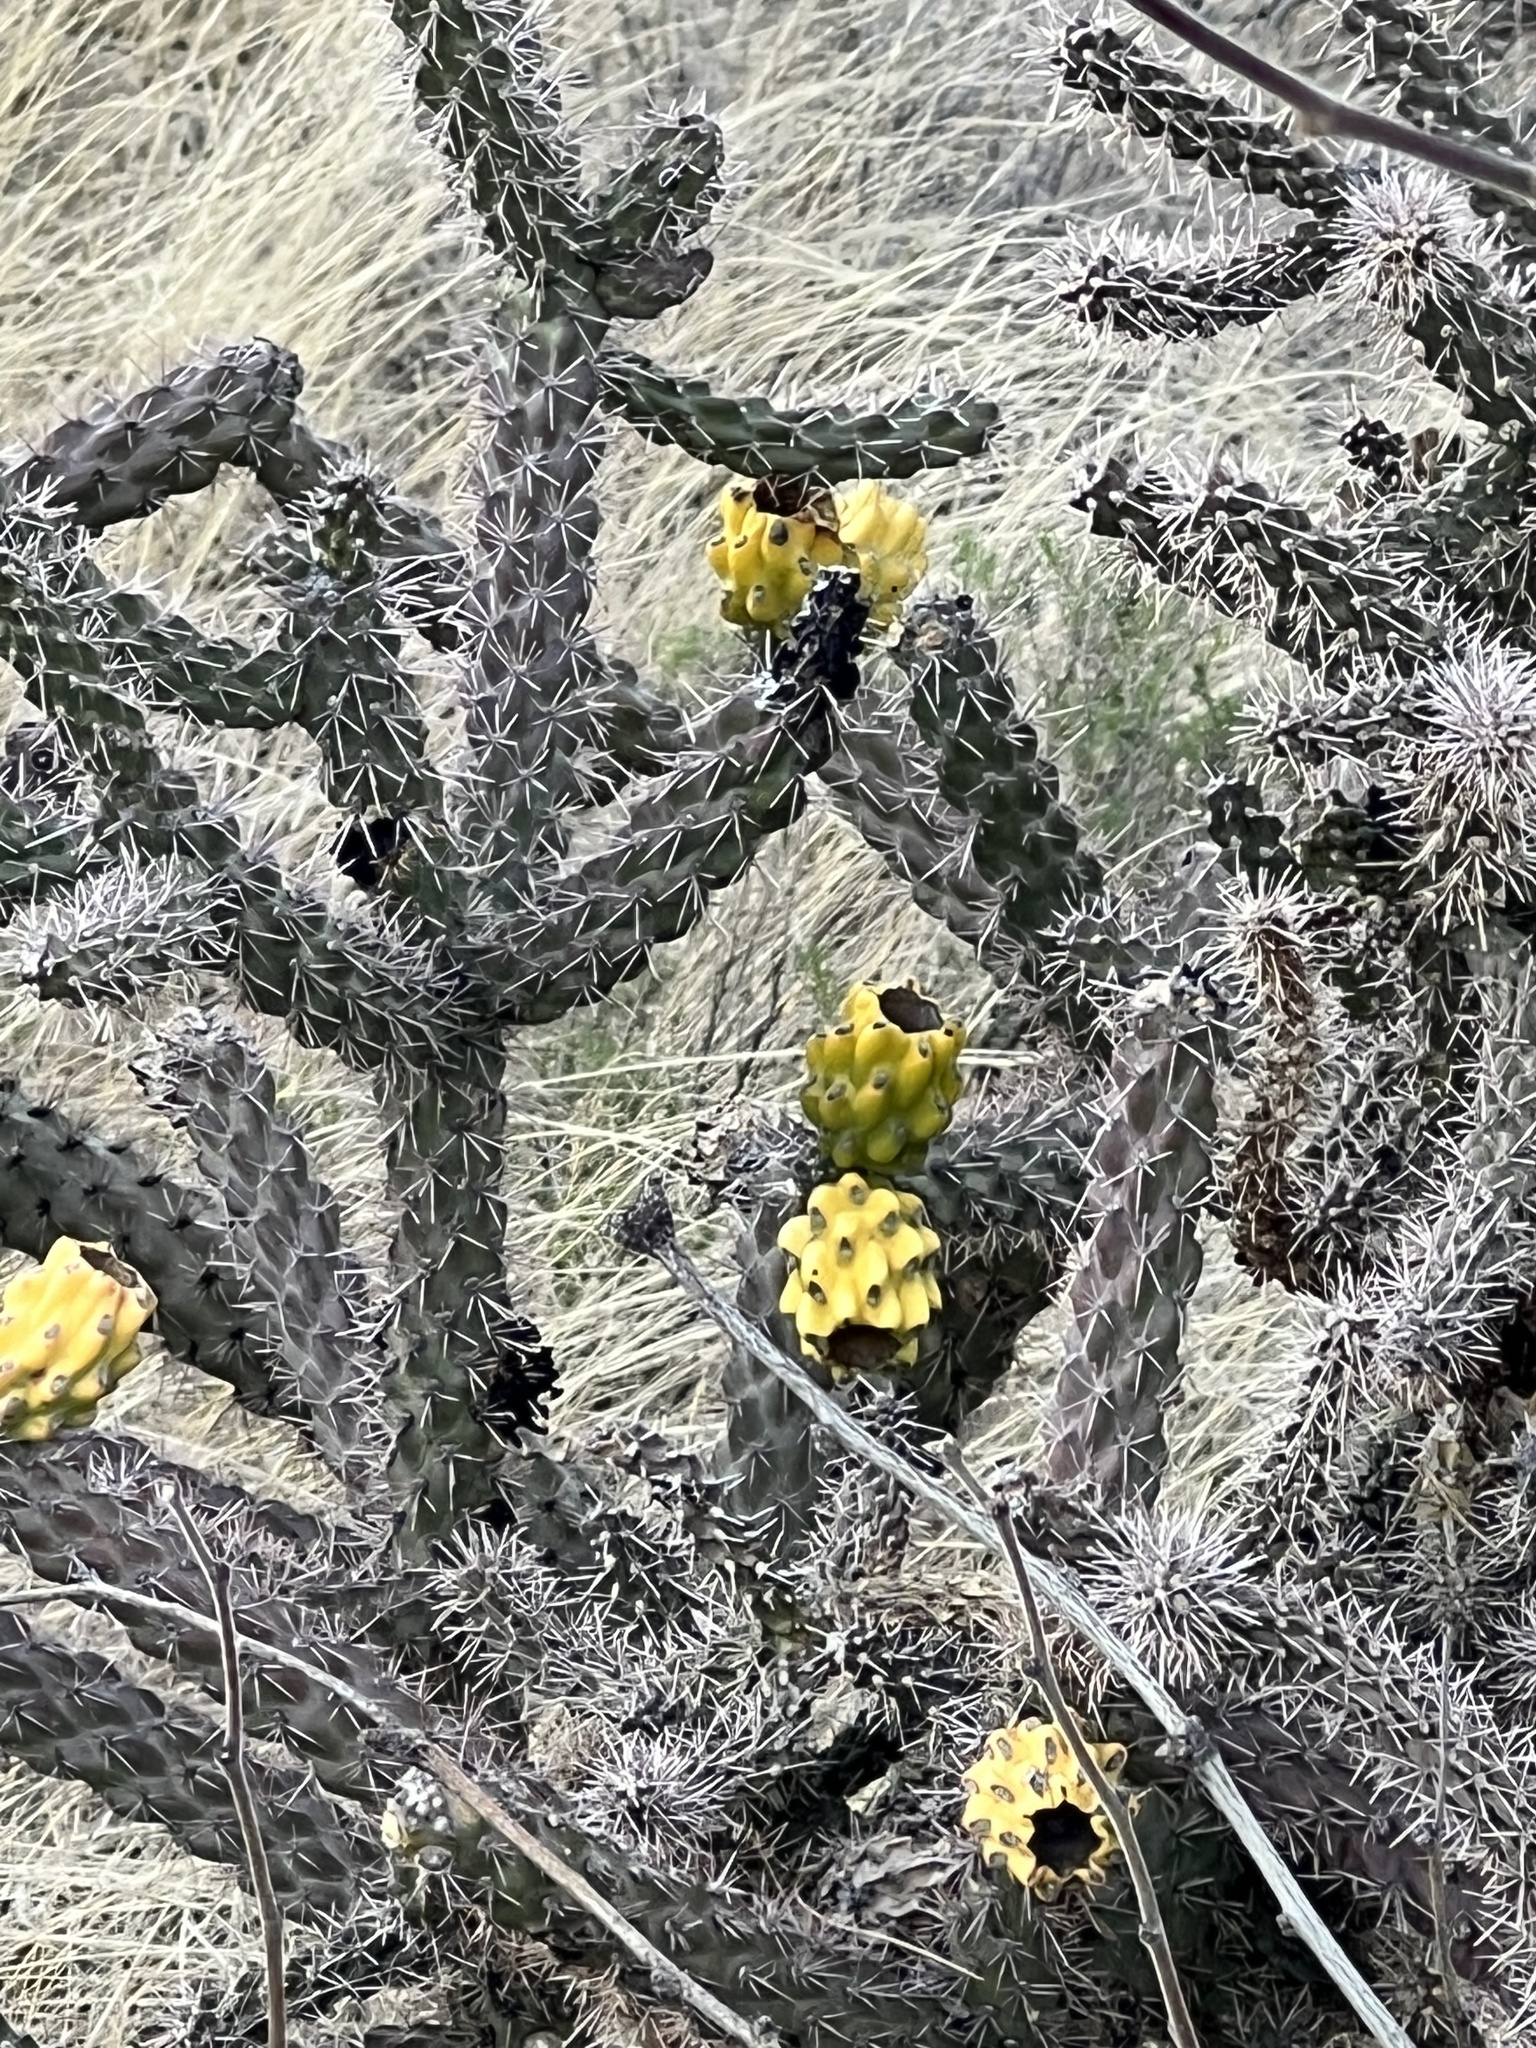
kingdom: Plantae
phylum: Tracheophyta
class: Magnoliopsida
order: Caryophyllales
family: Cactaceae
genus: Cylindropuntia
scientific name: Cylindropuntia imbricata
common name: Candelabrum cactus
